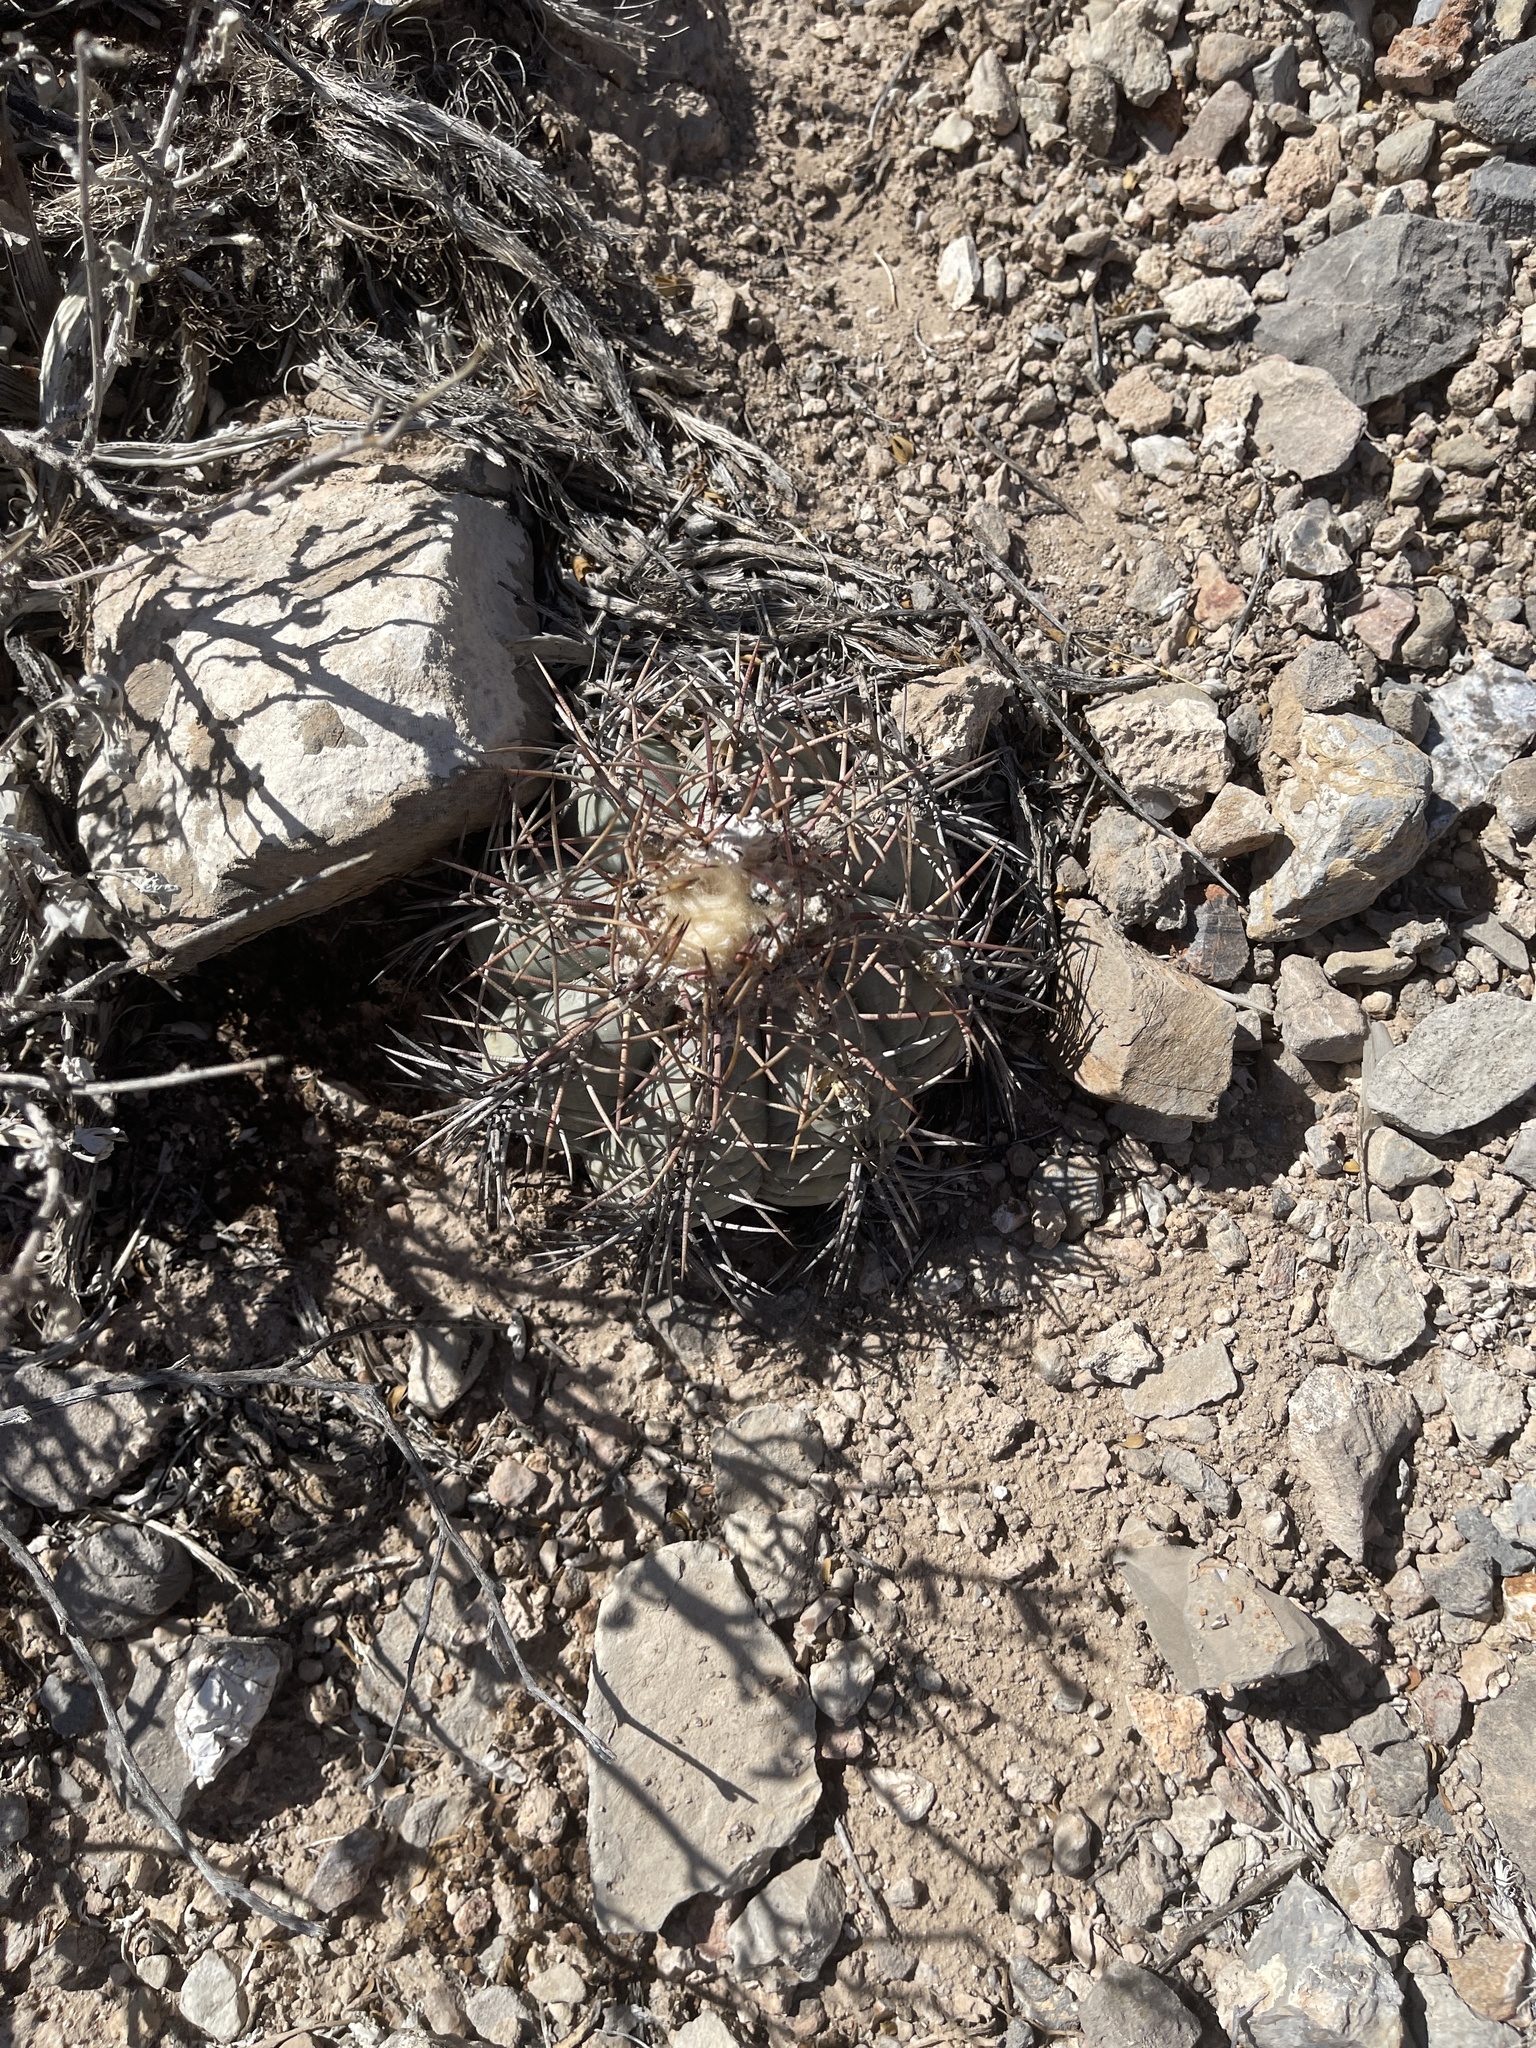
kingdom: Plantae
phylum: Tracheophyta
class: Magnoliopsida
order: Caryophyllales
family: Cactaceae
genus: Echinocactus
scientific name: Echinocactus horizonthalonius
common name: Devilshead
